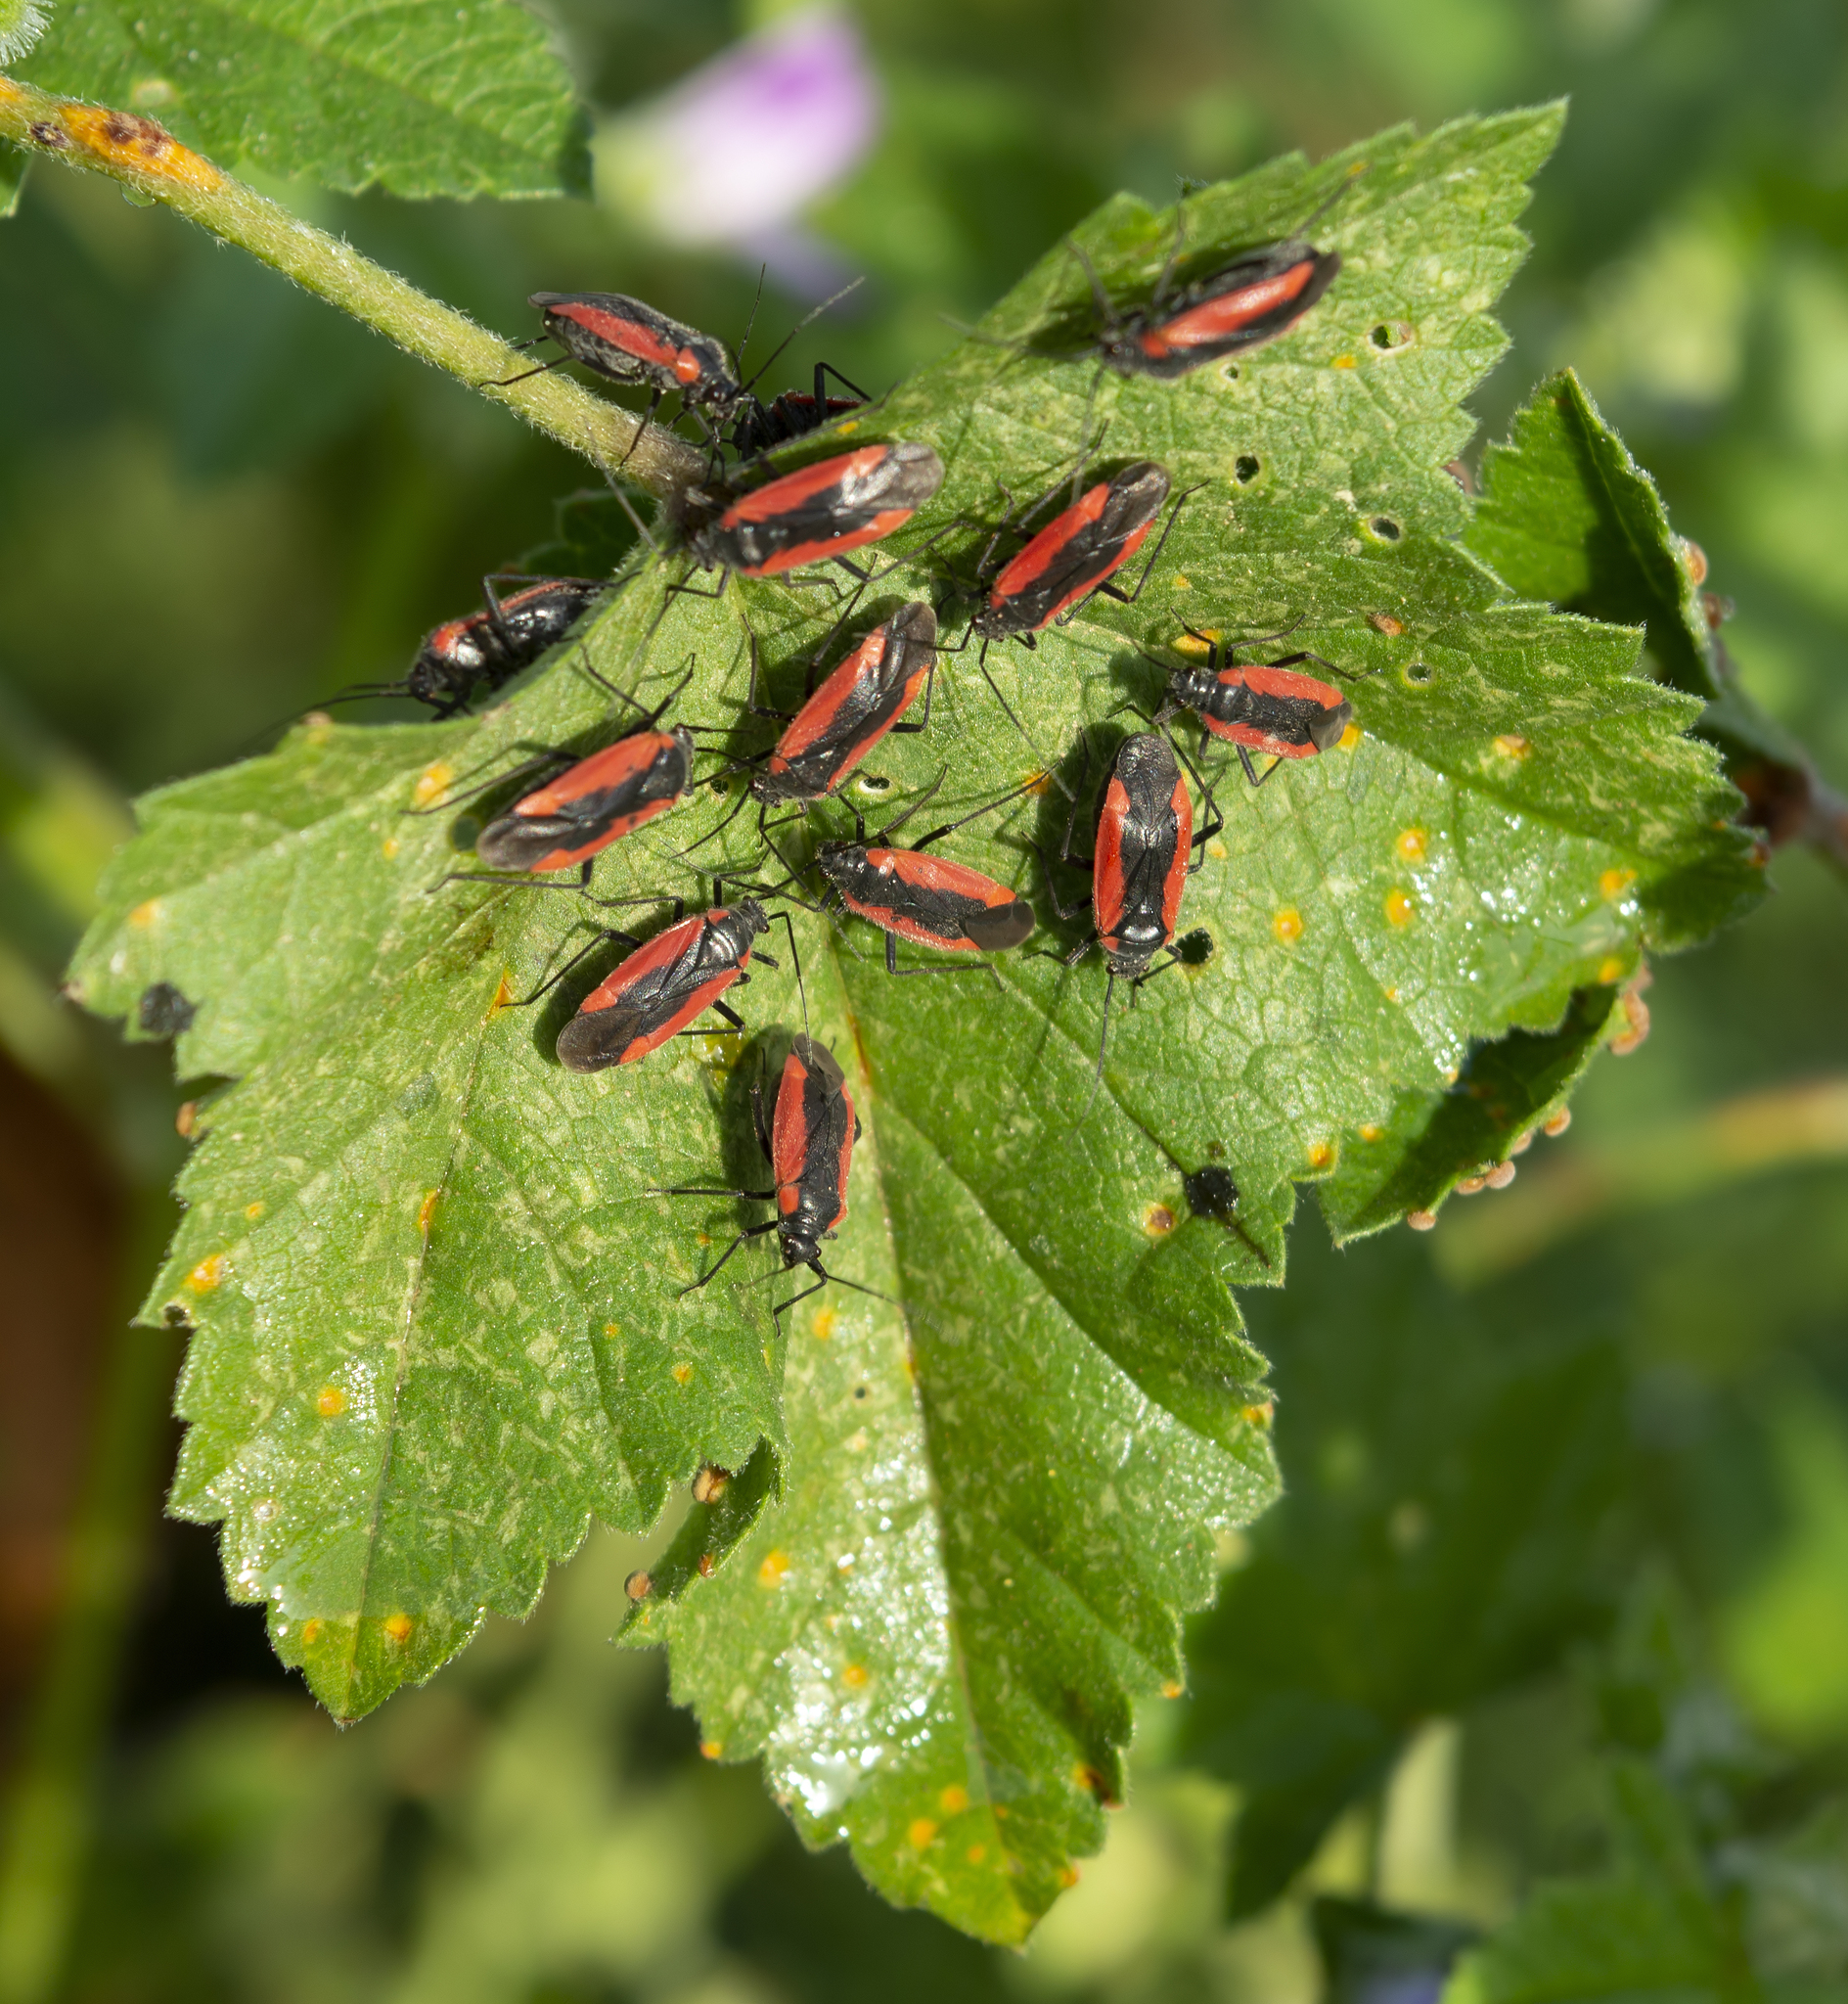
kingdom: Animalia
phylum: Arthropoda
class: Insecta
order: Hemiptera
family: Miridae
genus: Dionconotus
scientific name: Dionconotus neglectus
